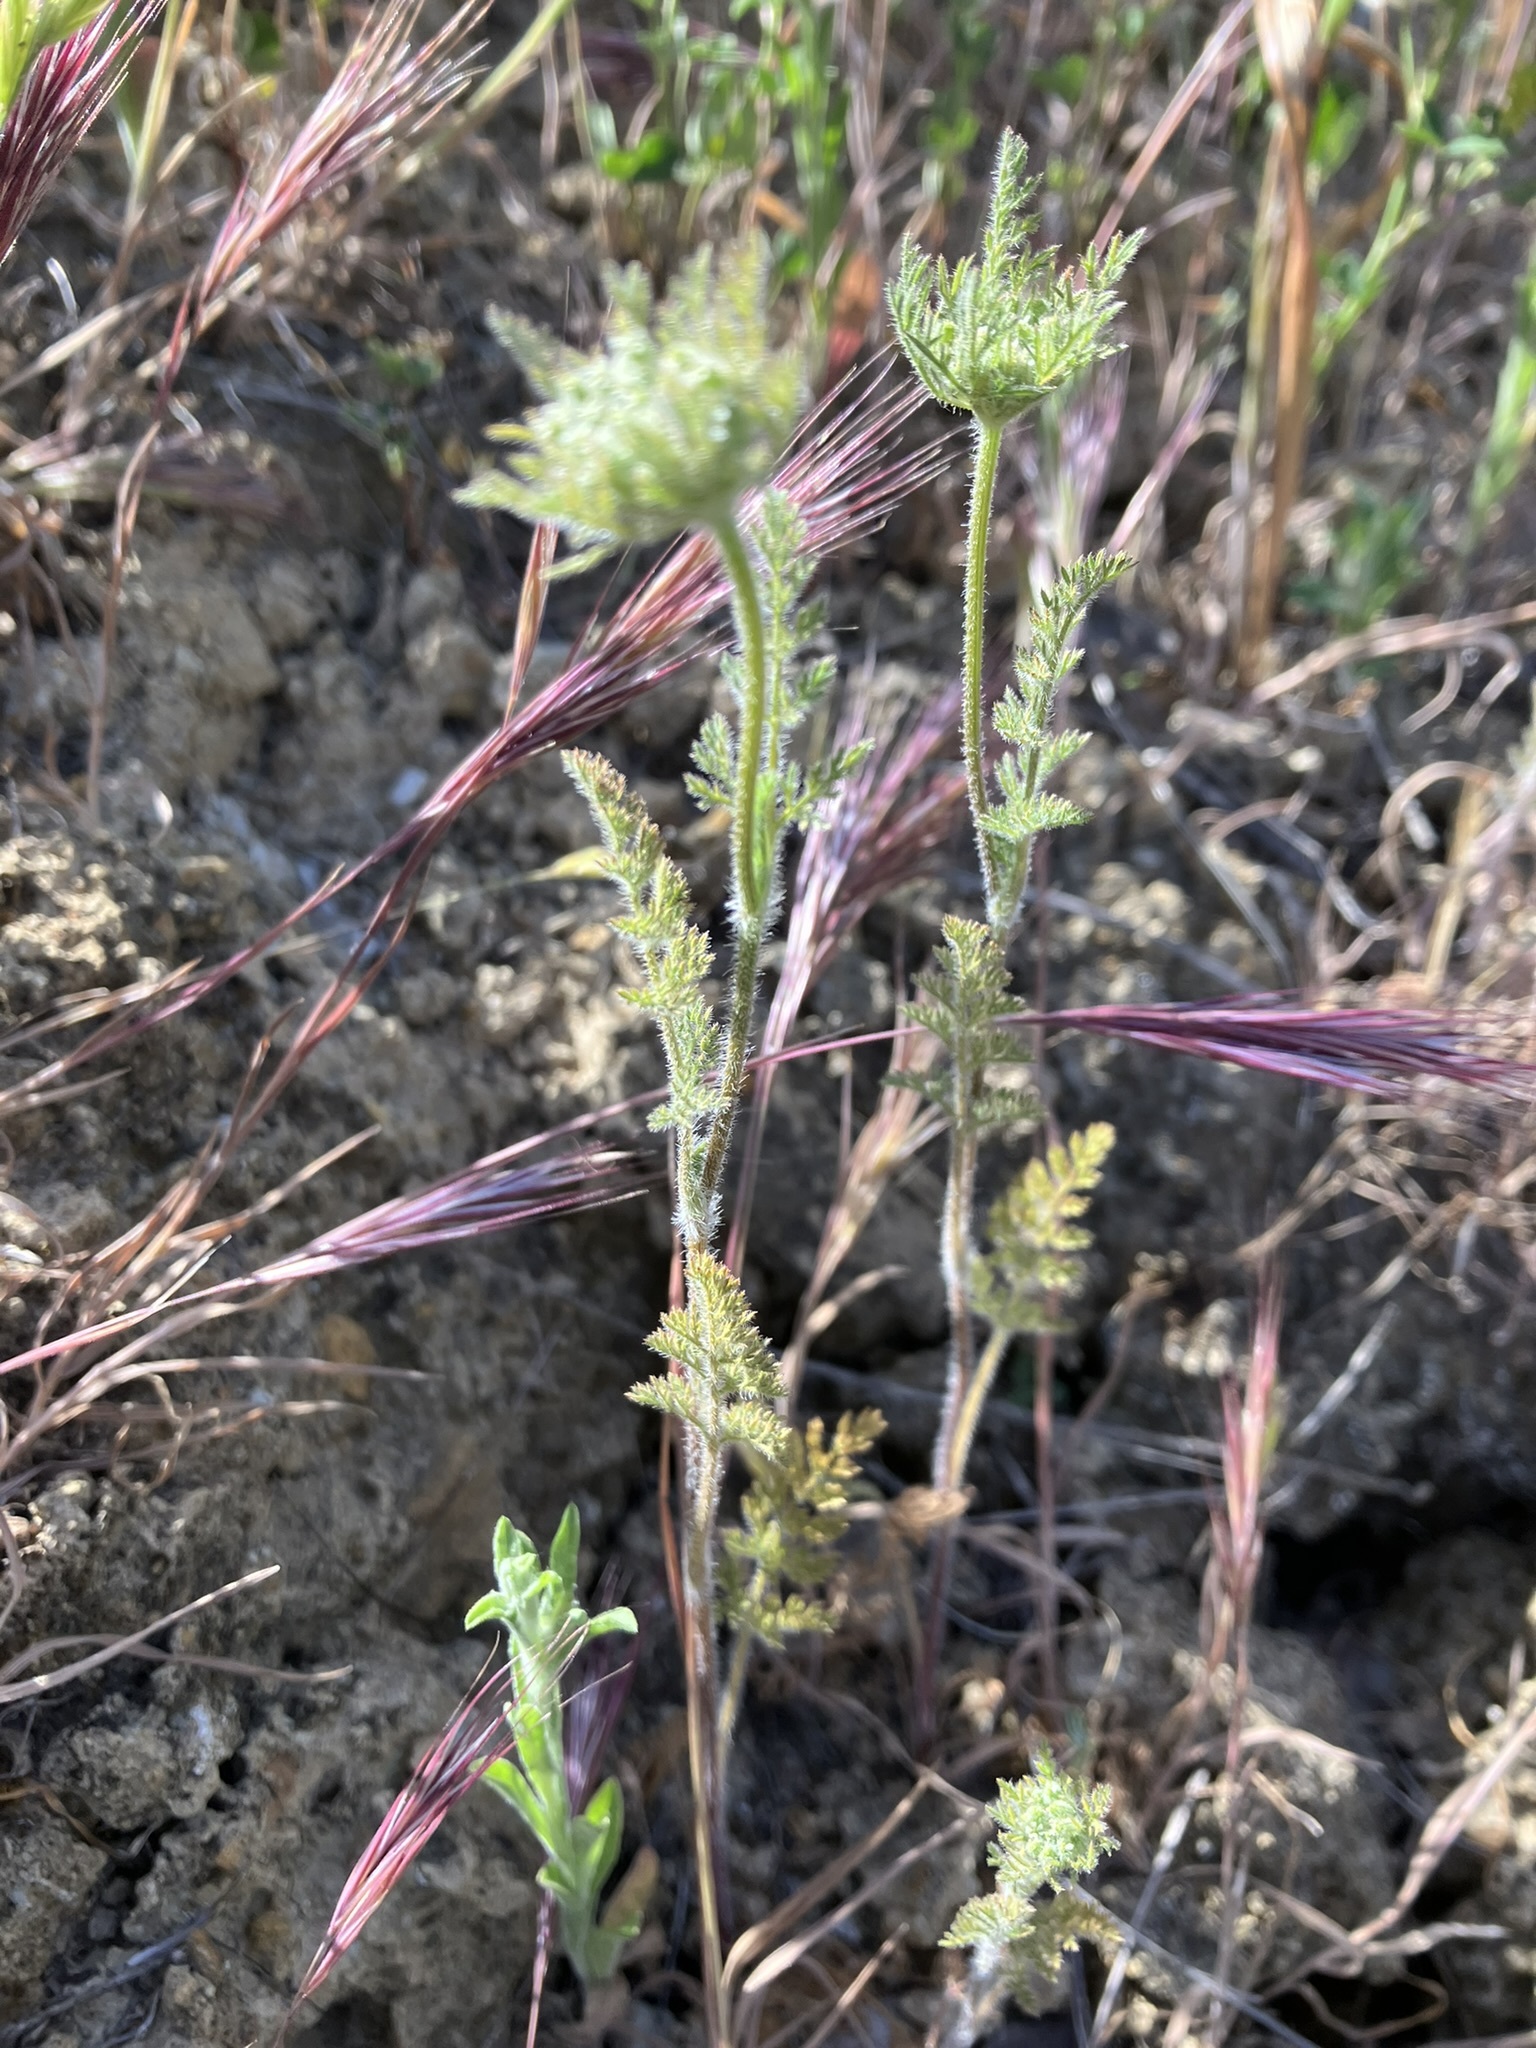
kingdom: Plantae
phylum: Tracheophyta
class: Magnoliopsida
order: Apiales
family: Apiaceae
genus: Daucus
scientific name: Daucus pusillus
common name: Southwest wild carrot
